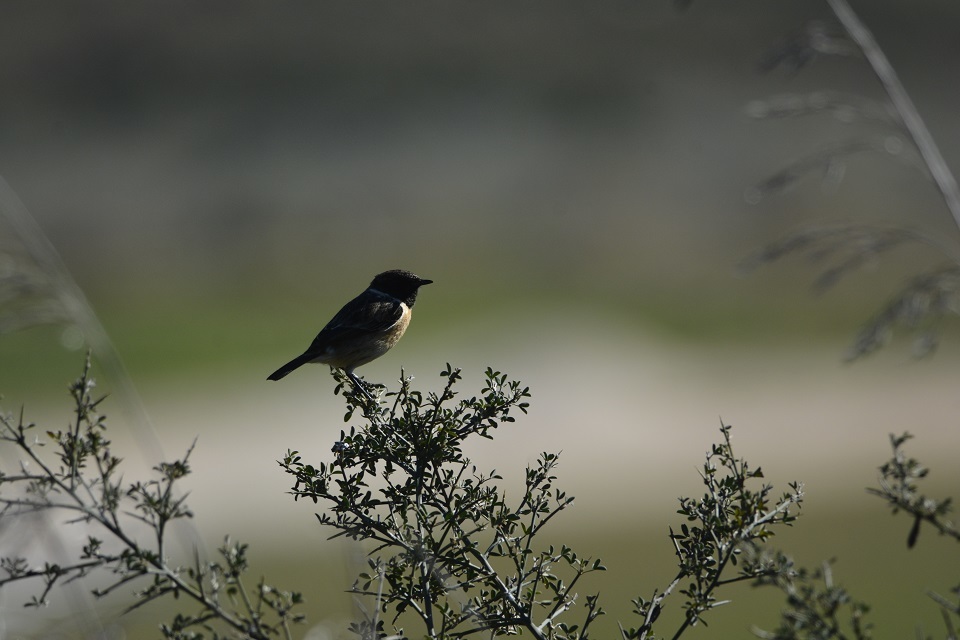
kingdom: Animalia
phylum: Chordata
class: Aves
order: Passeriformes
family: Muscicapidae
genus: Saxicola
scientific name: Saxicola rubicola
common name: European stonechat
